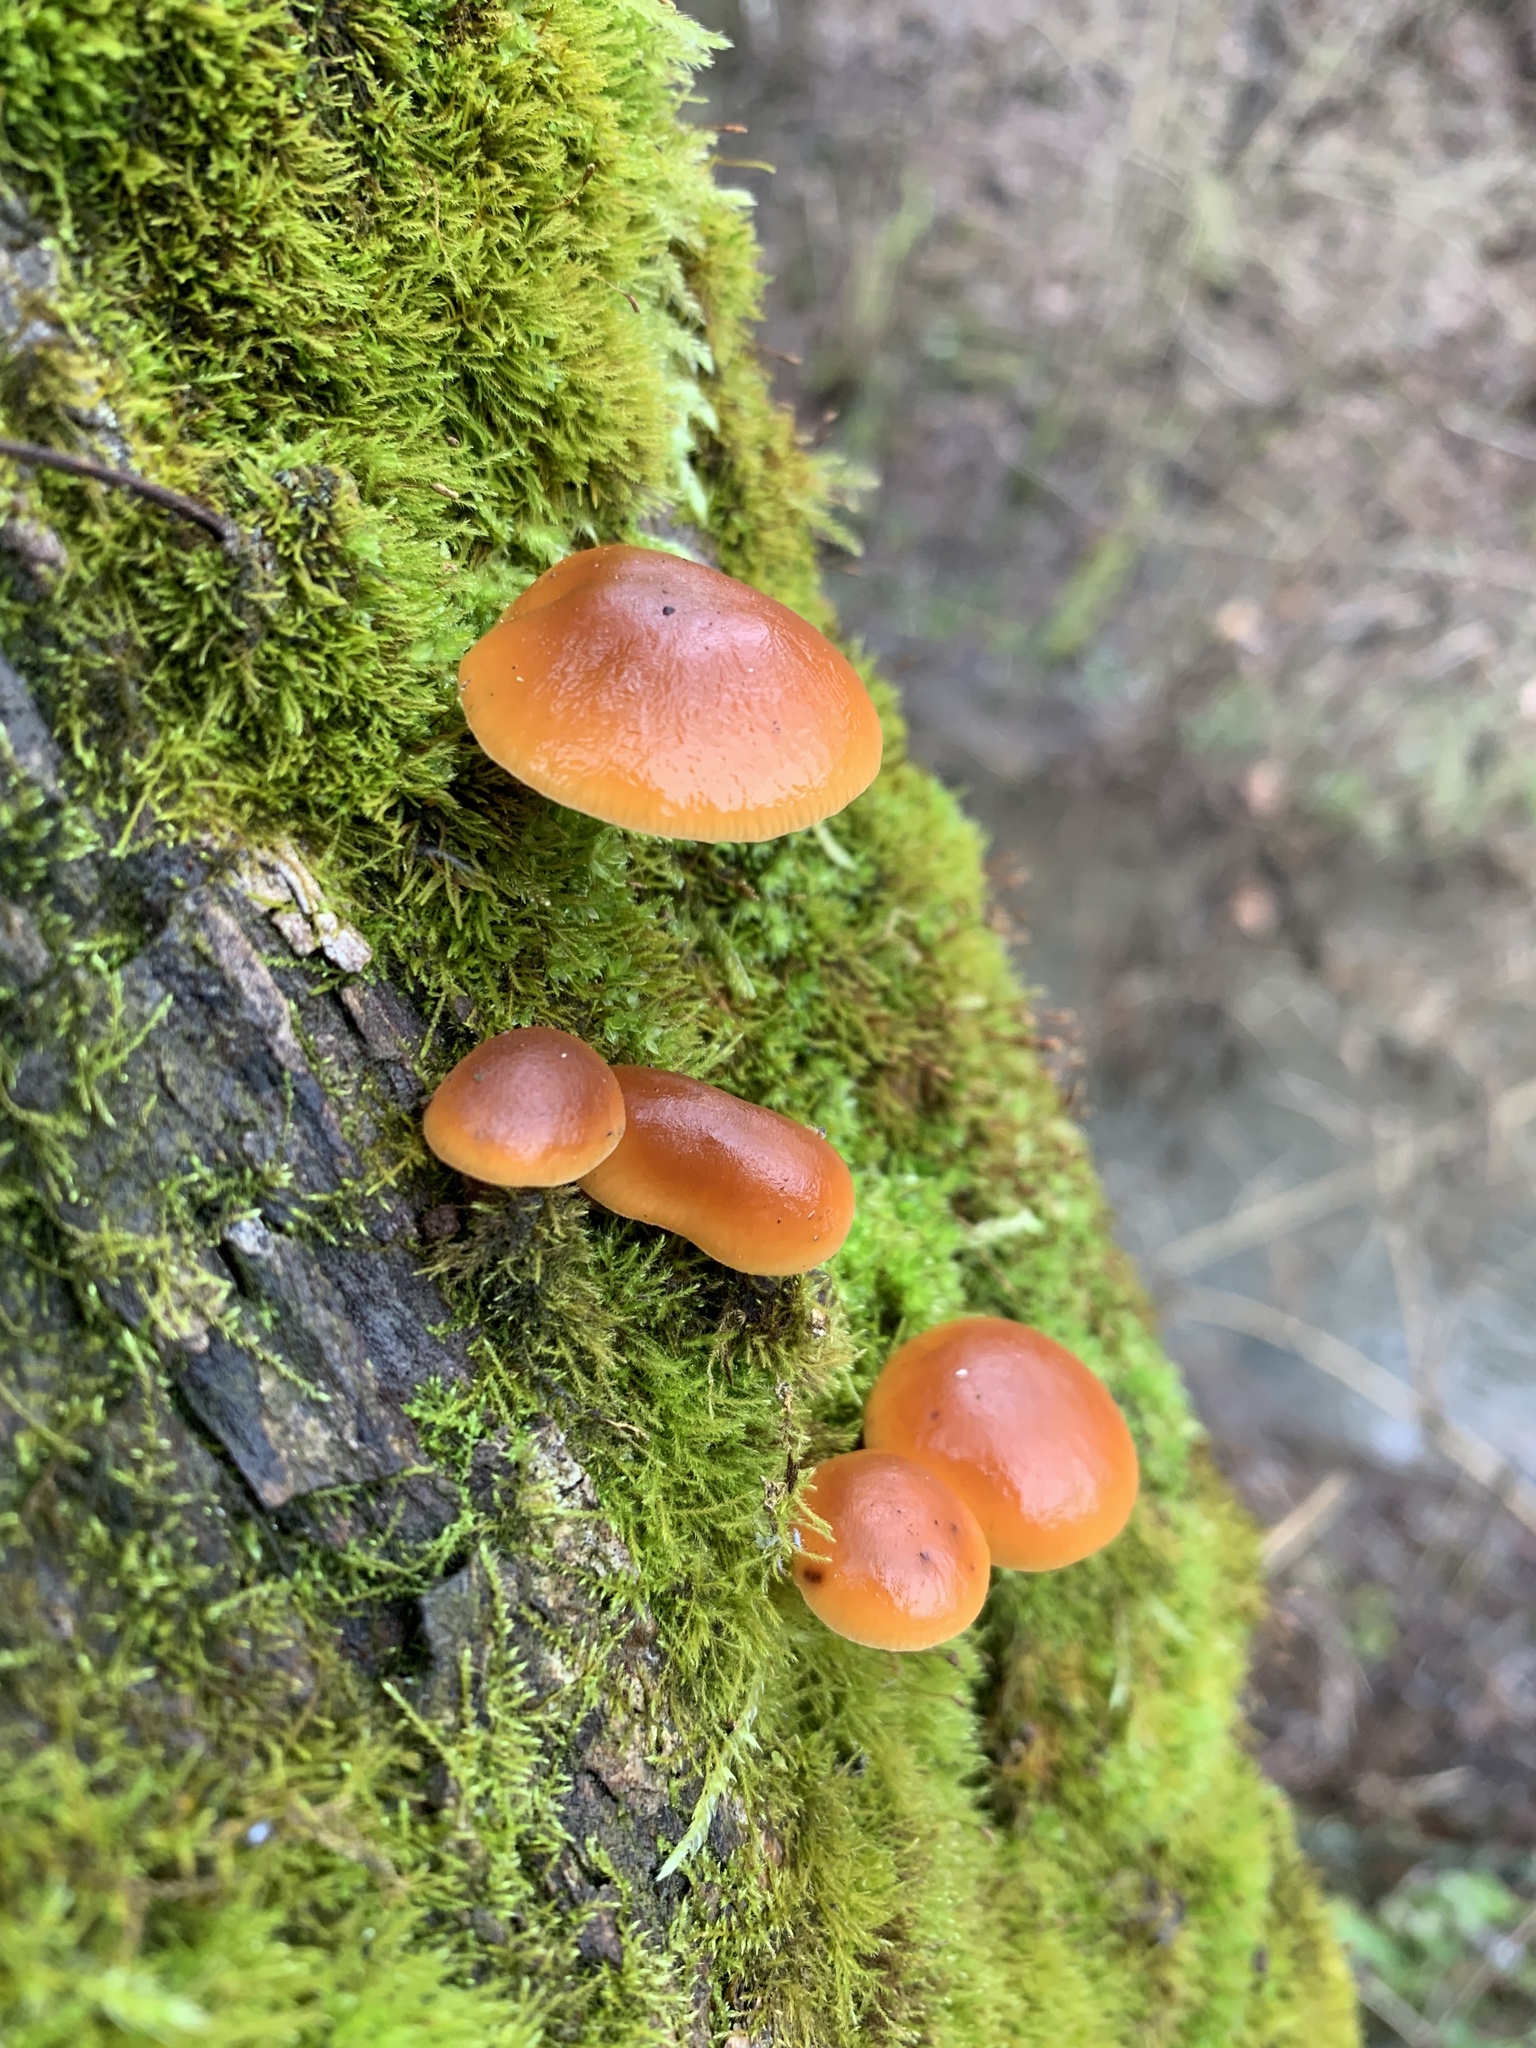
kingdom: Fungi
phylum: Basidiomycota
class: Agaricomycetes
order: Agaricales
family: Physalacriaceae
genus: Flammulina
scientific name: Flammulina
